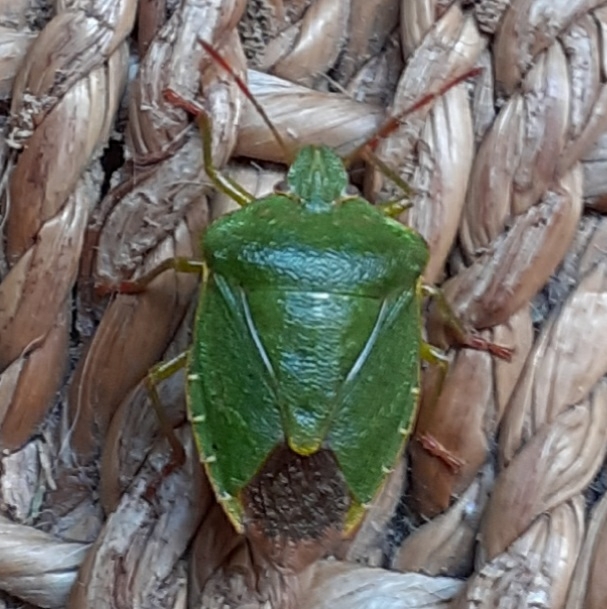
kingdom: Animalia
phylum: Arthropoda
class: Insecta
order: Hemiptera
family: Pentatomidae
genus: Palomena
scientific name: Palomena prasina
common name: Green shieldbug
